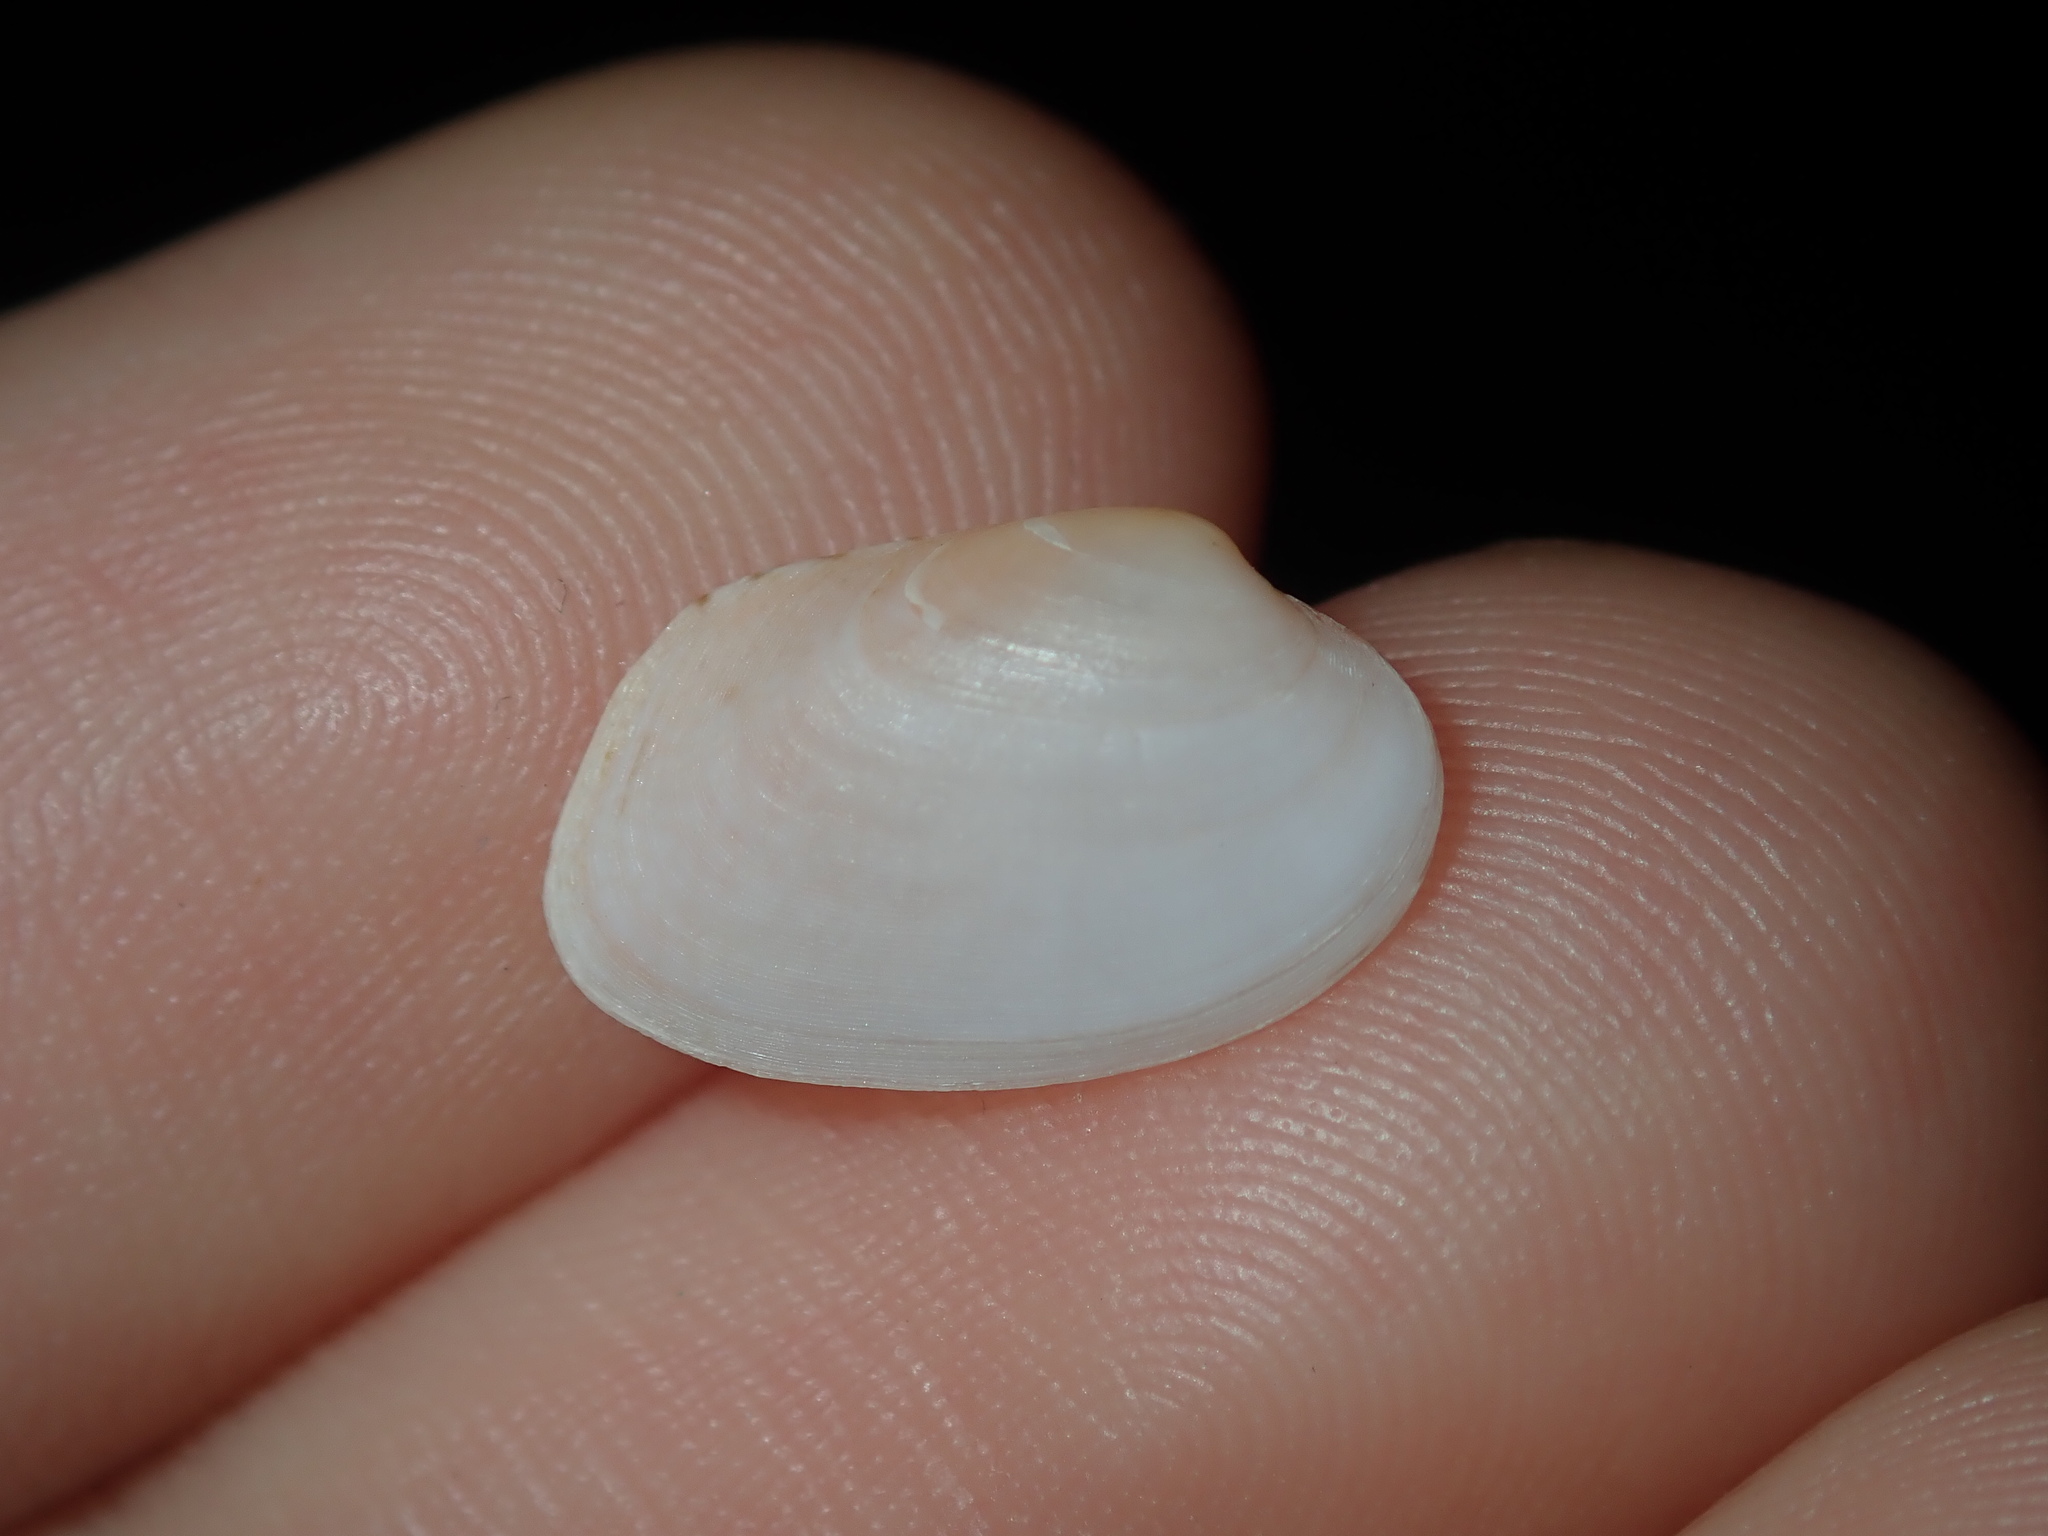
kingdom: Animalia
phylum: Mollusca
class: Bivalvia
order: Venerida
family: Veneridae
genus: Venerupis
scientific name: Venerupis anomala
